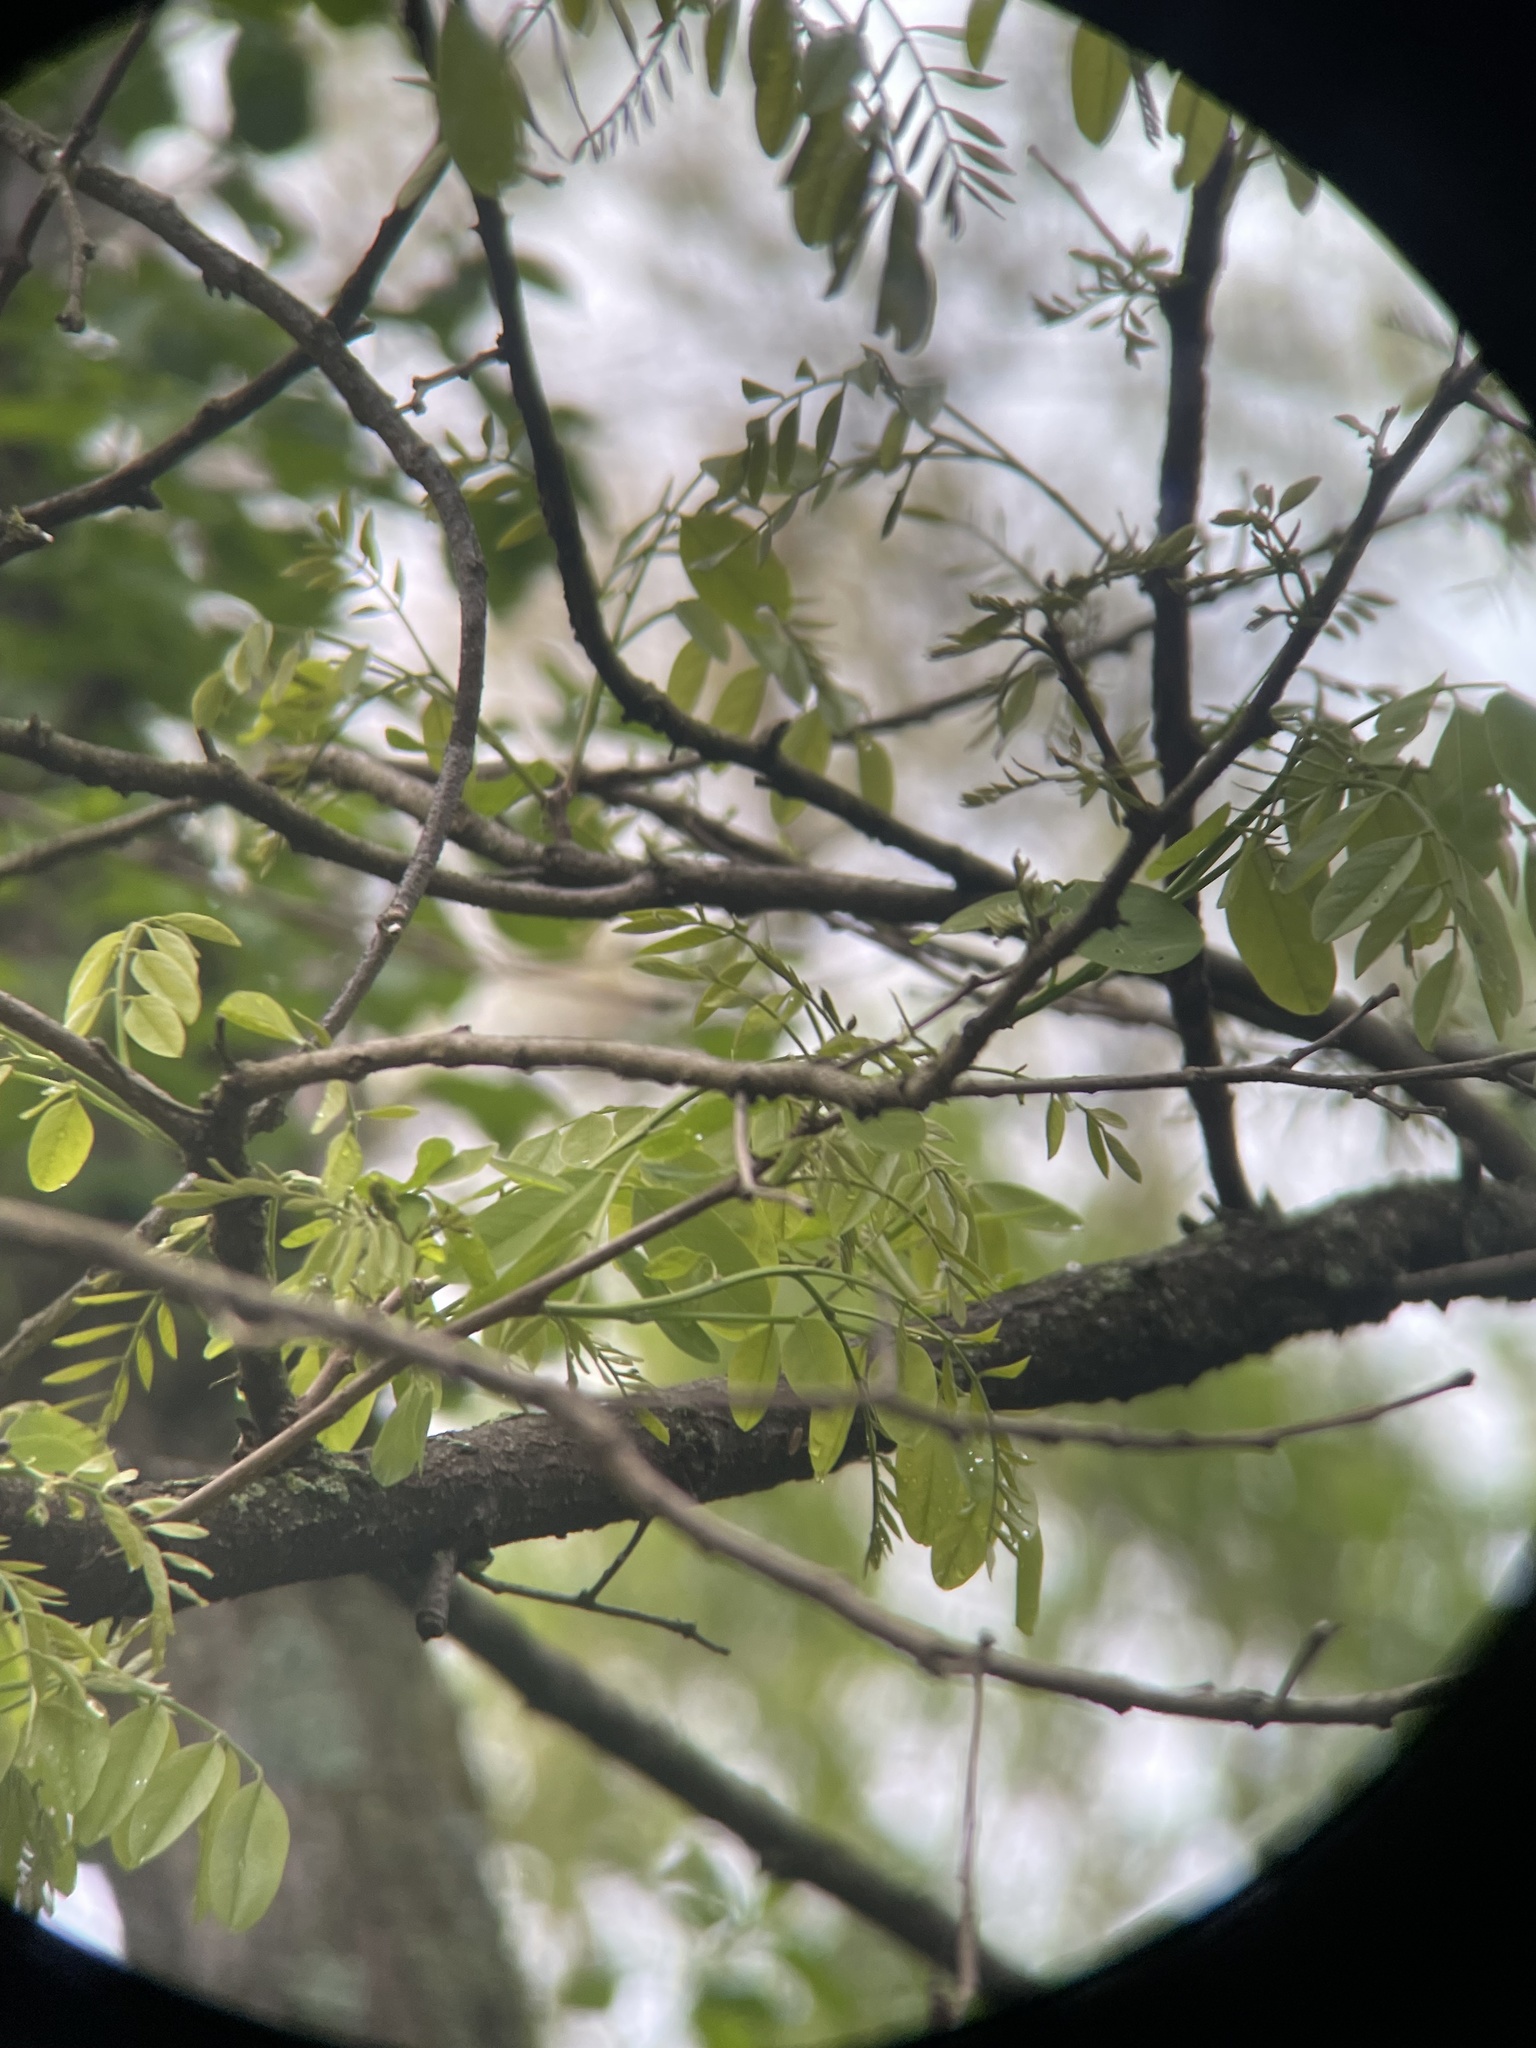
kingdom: Plantae
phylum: Tracheophyta
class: Magnoliopsida
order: Fabales
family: Fabaceae
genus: Robinia
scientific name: Robinia pseudoacacia
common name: Black locust
